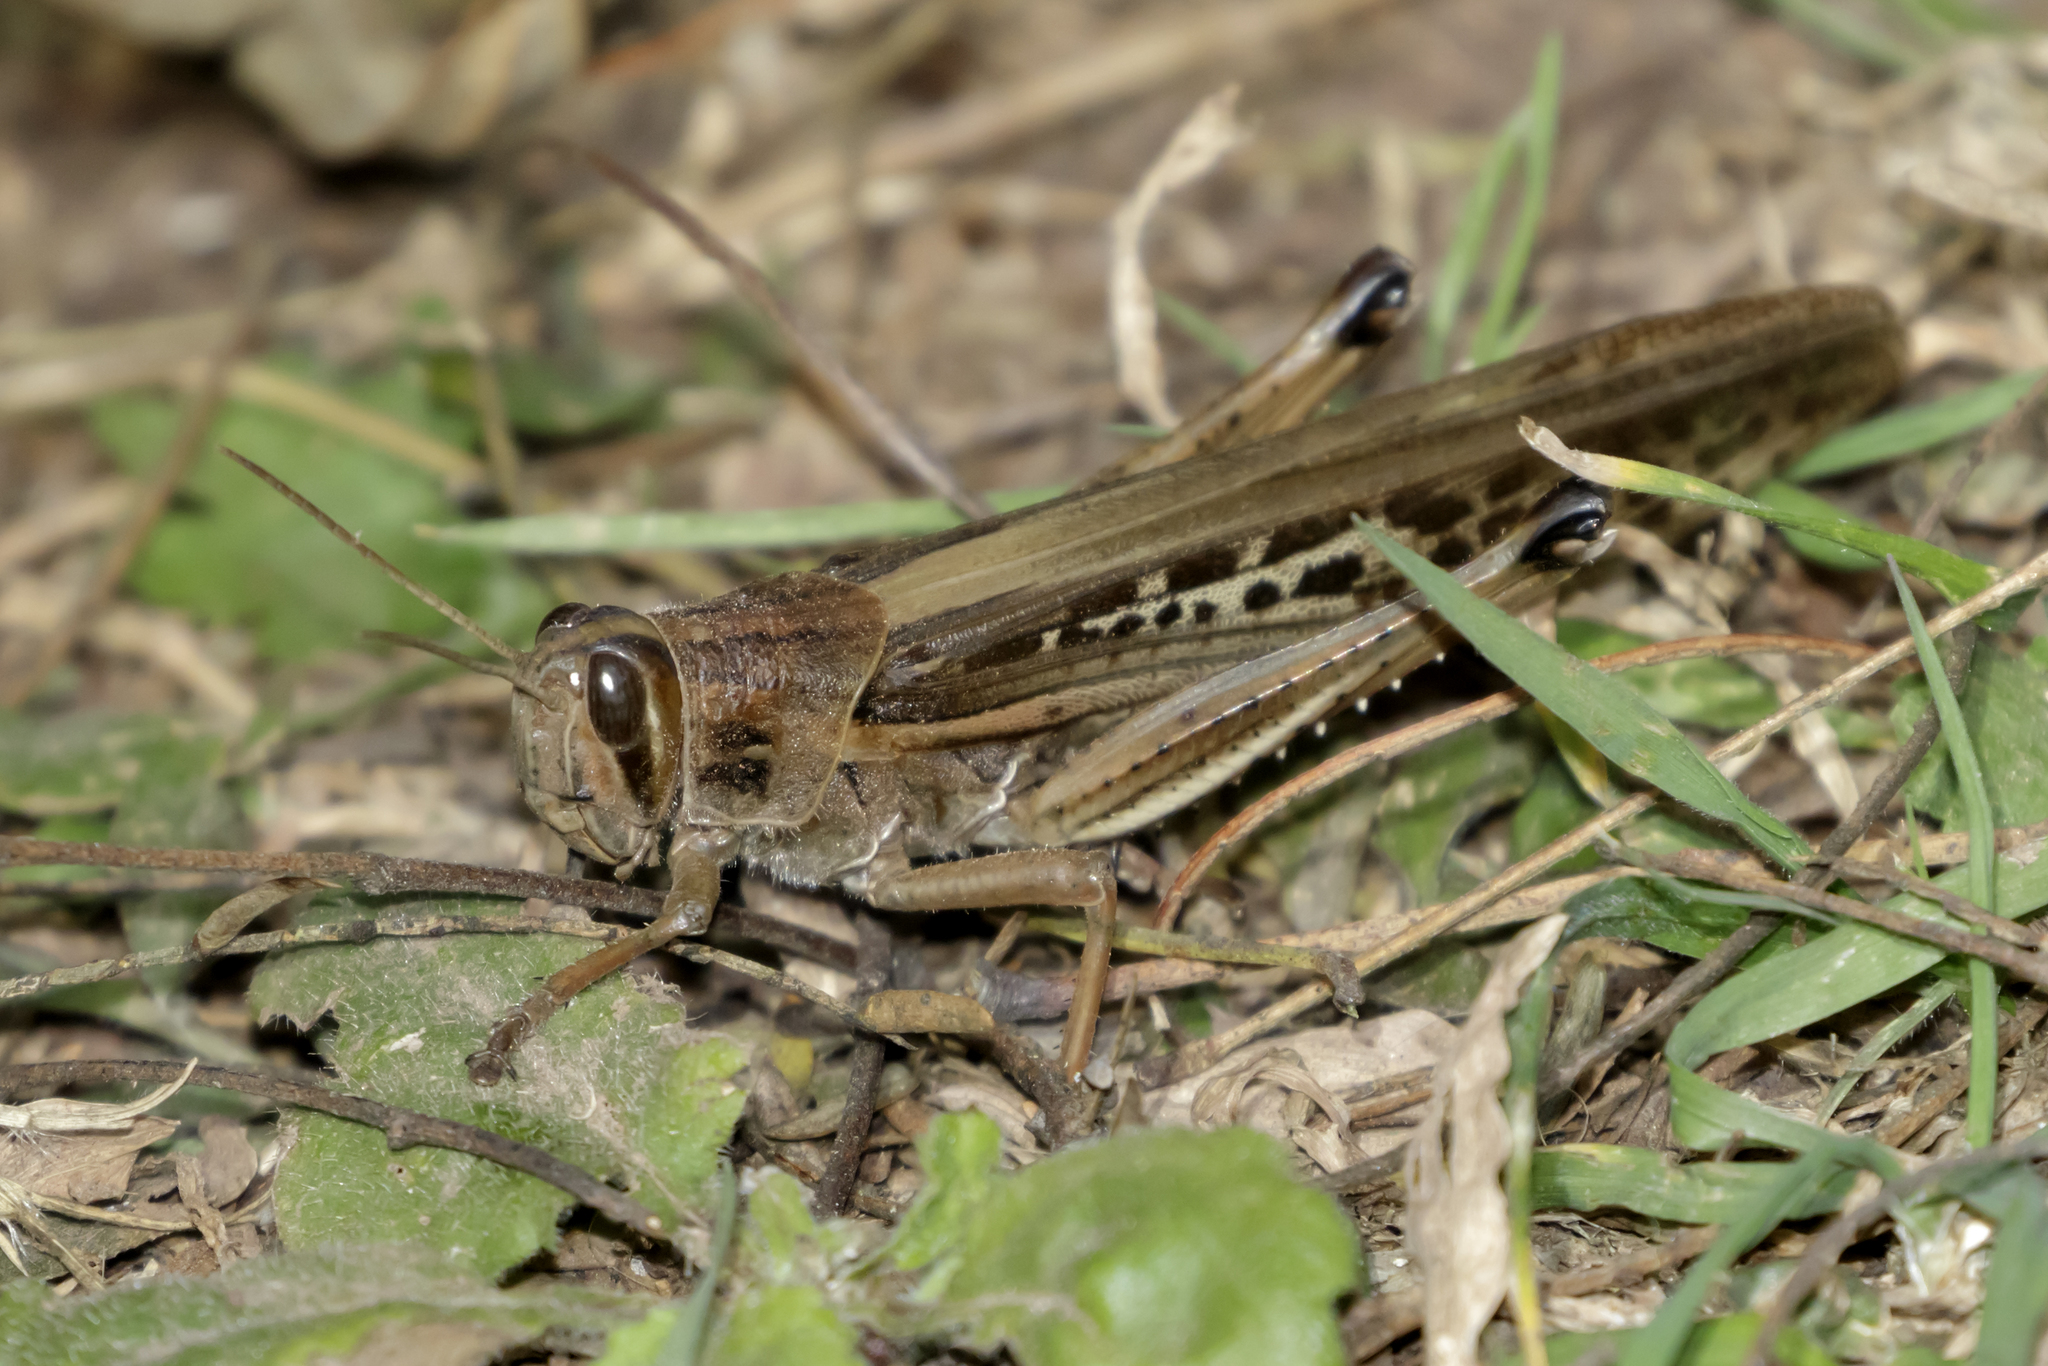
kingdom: Animalia
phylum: Arthropoda
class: Insecta
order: Orthoptera
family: Acrididae
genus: Schistocerca
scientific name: Schistocerca cancellata
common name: South american locust
